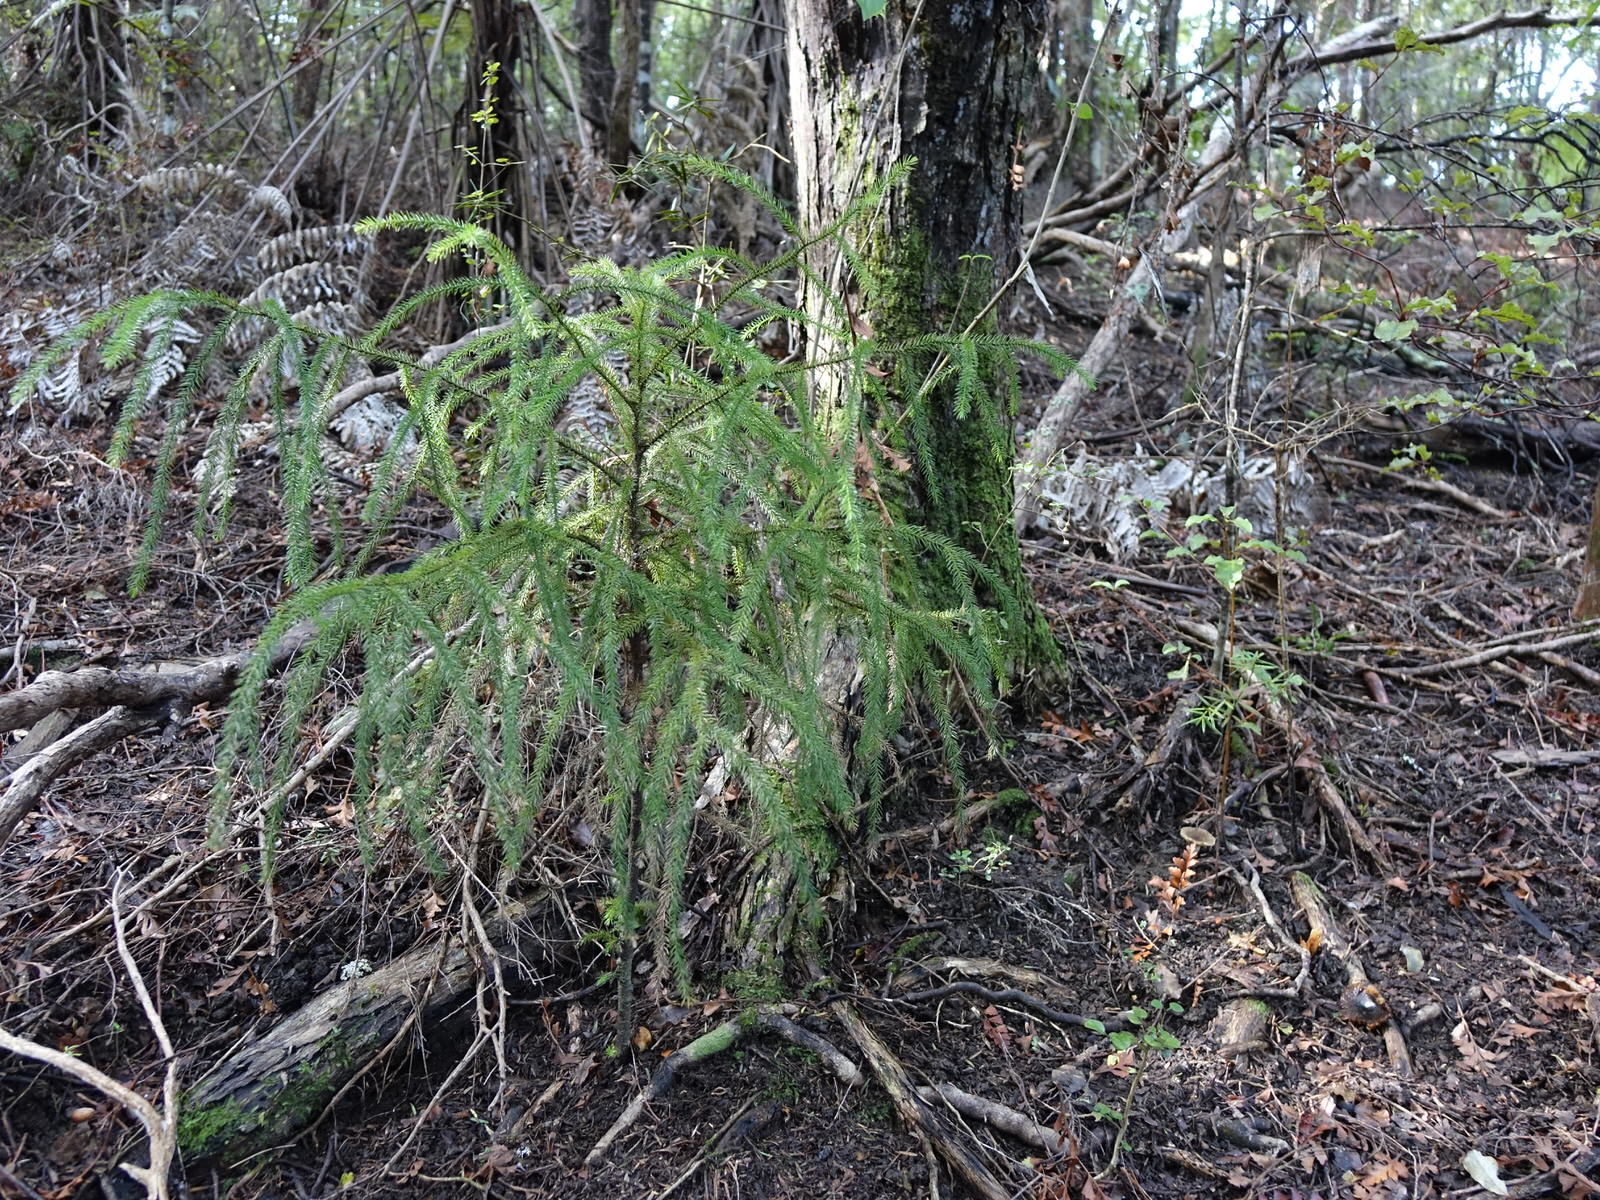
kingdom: Plantae
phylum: Tracheophyta
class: Pinopsida
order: Pinales
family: Podocarpaceae
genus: Dacrydium
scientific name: Dacrydium cupressinum
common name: Red pine
